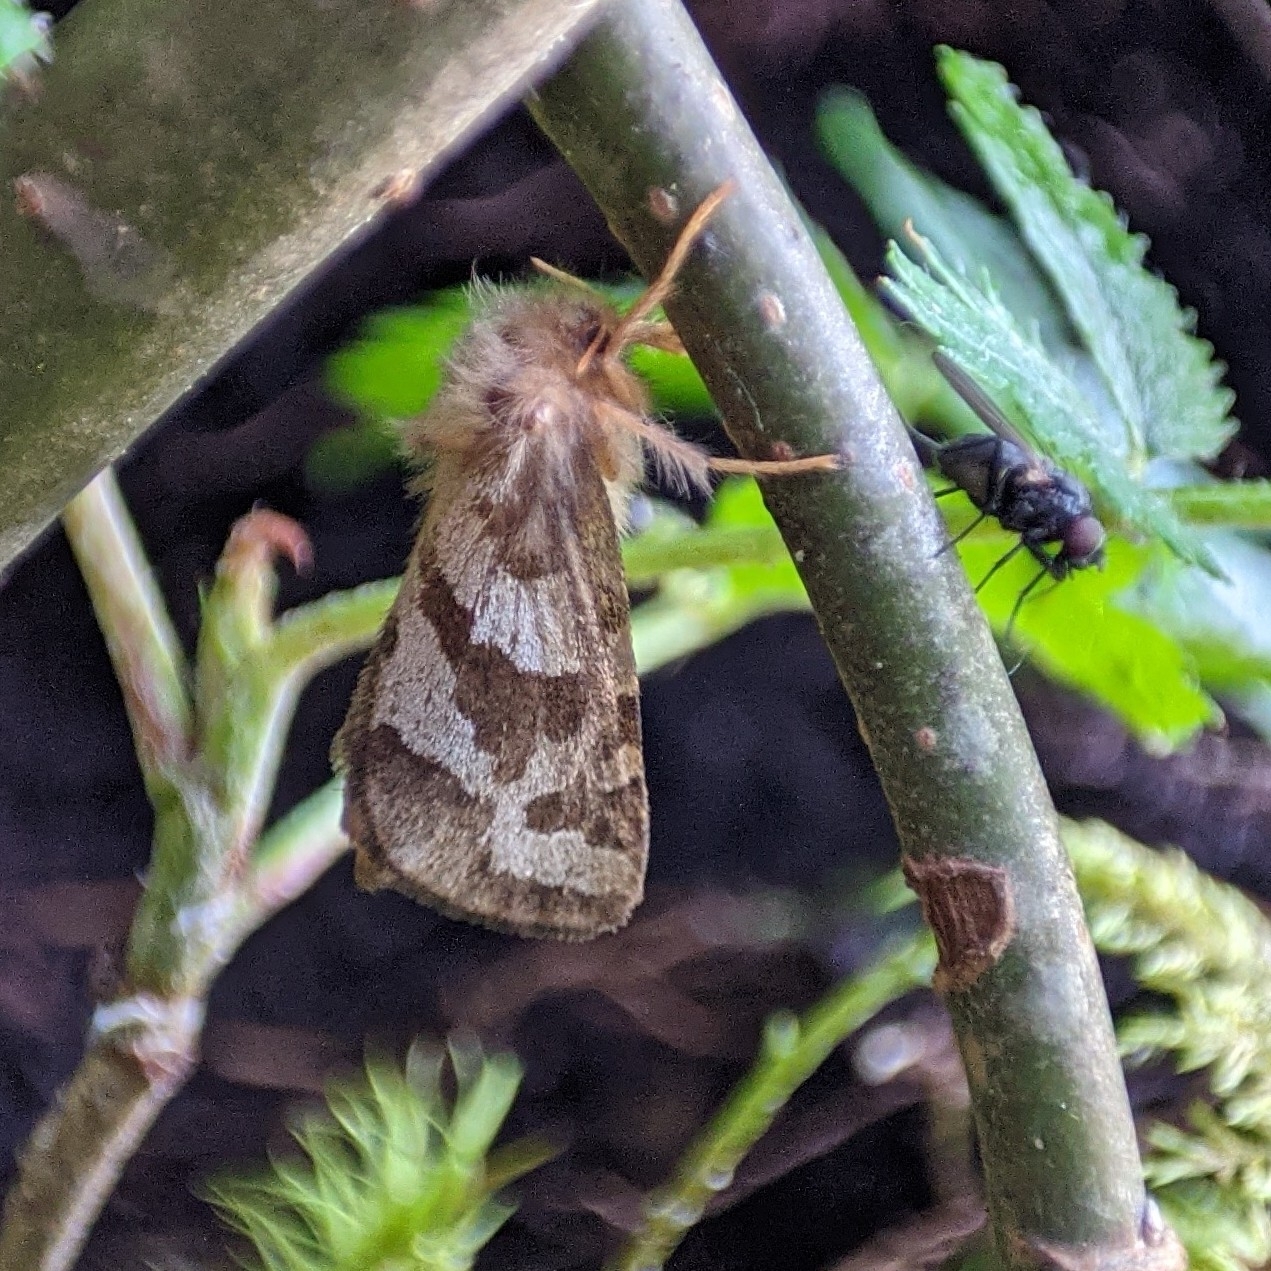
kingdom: Animalia
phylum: Arthropoda
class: Insecta
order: Lepidoptera
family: Hepialidae
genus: Phymatopus
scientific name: Phymatopus hecta
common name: Gold swift
